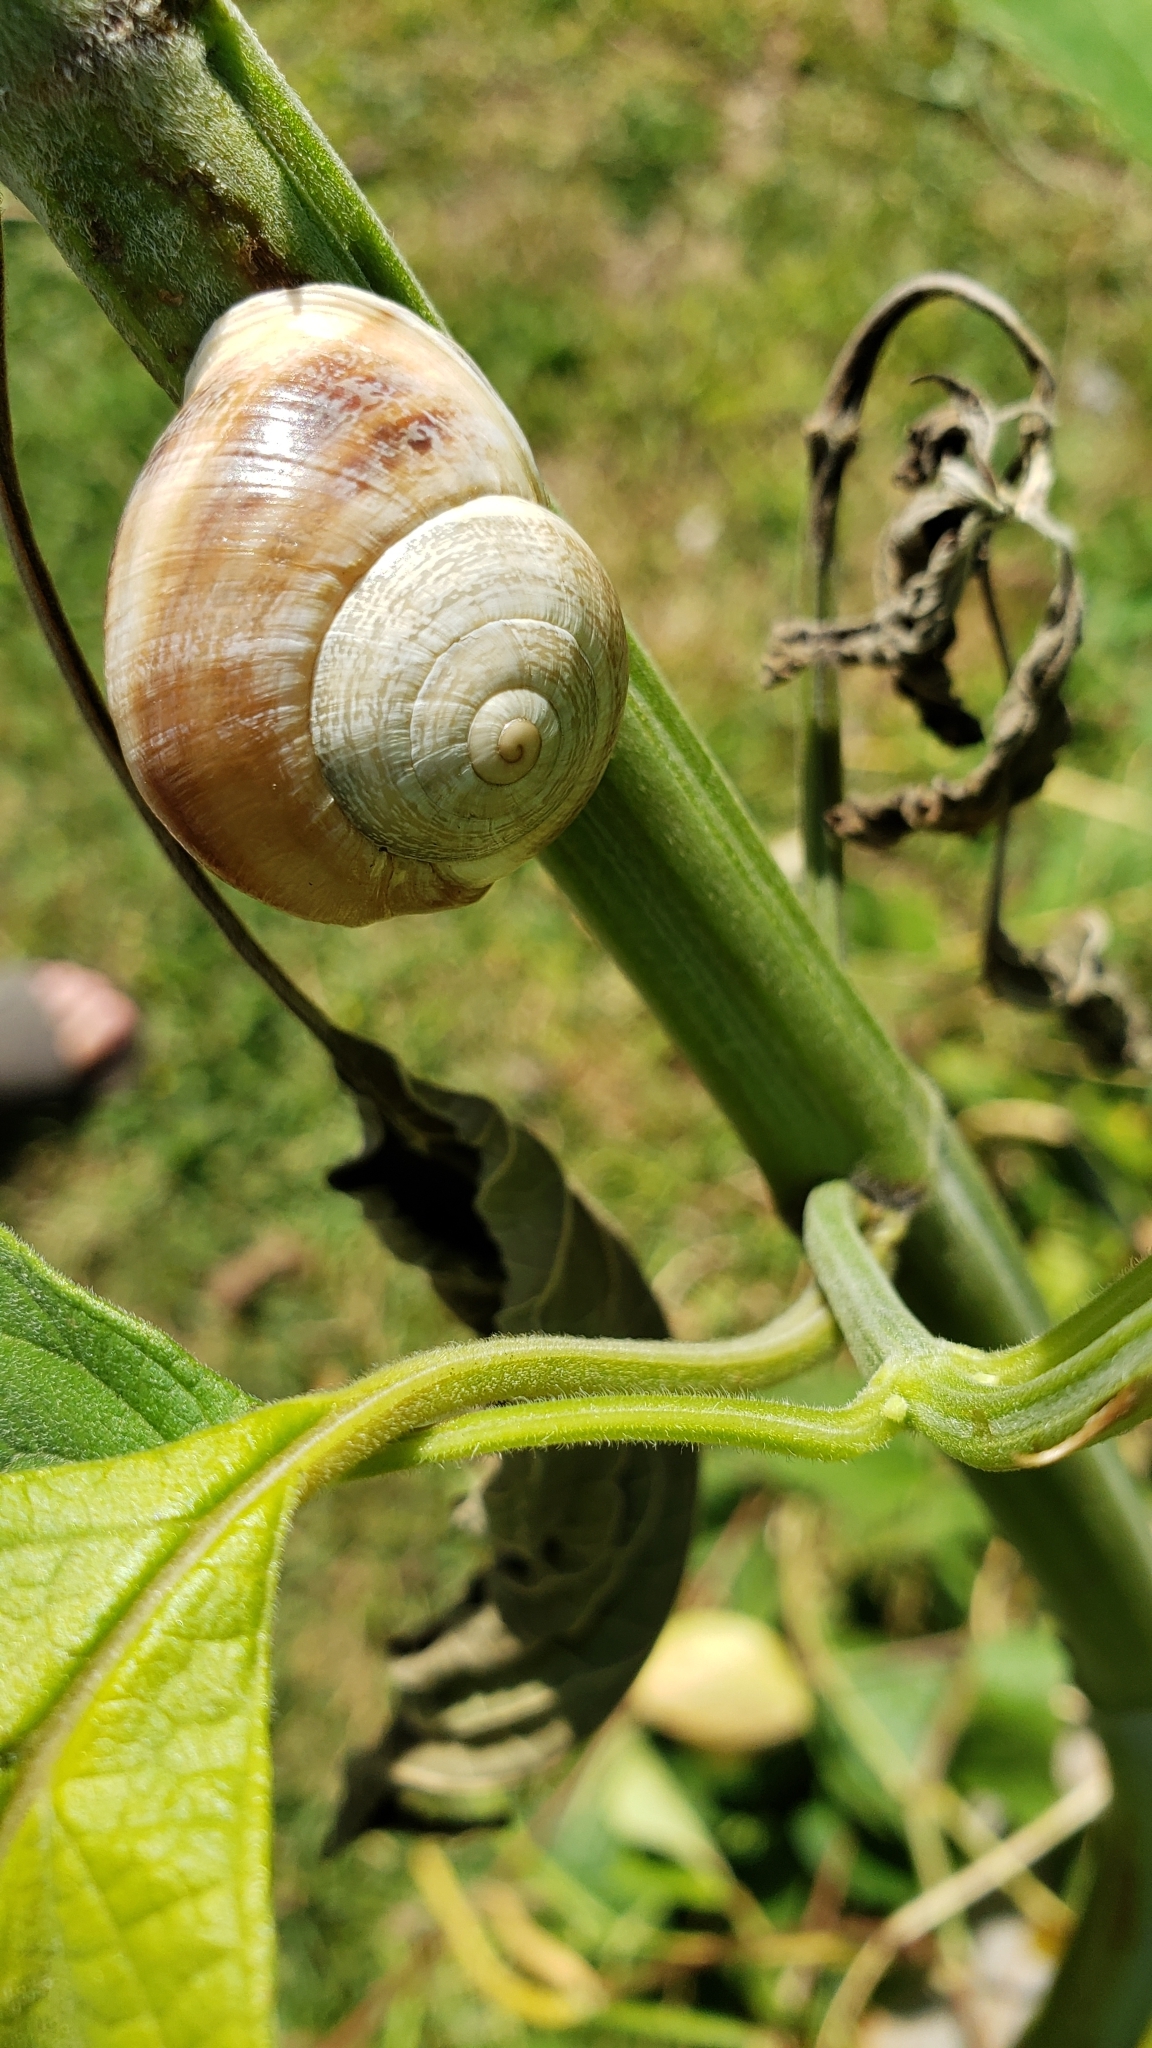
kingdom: Animalia
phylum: Mollusca
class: Gastropoda
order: Stylommatophora
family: Helicidae
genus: Otala
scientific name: Otala lactea
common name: Milk snail
